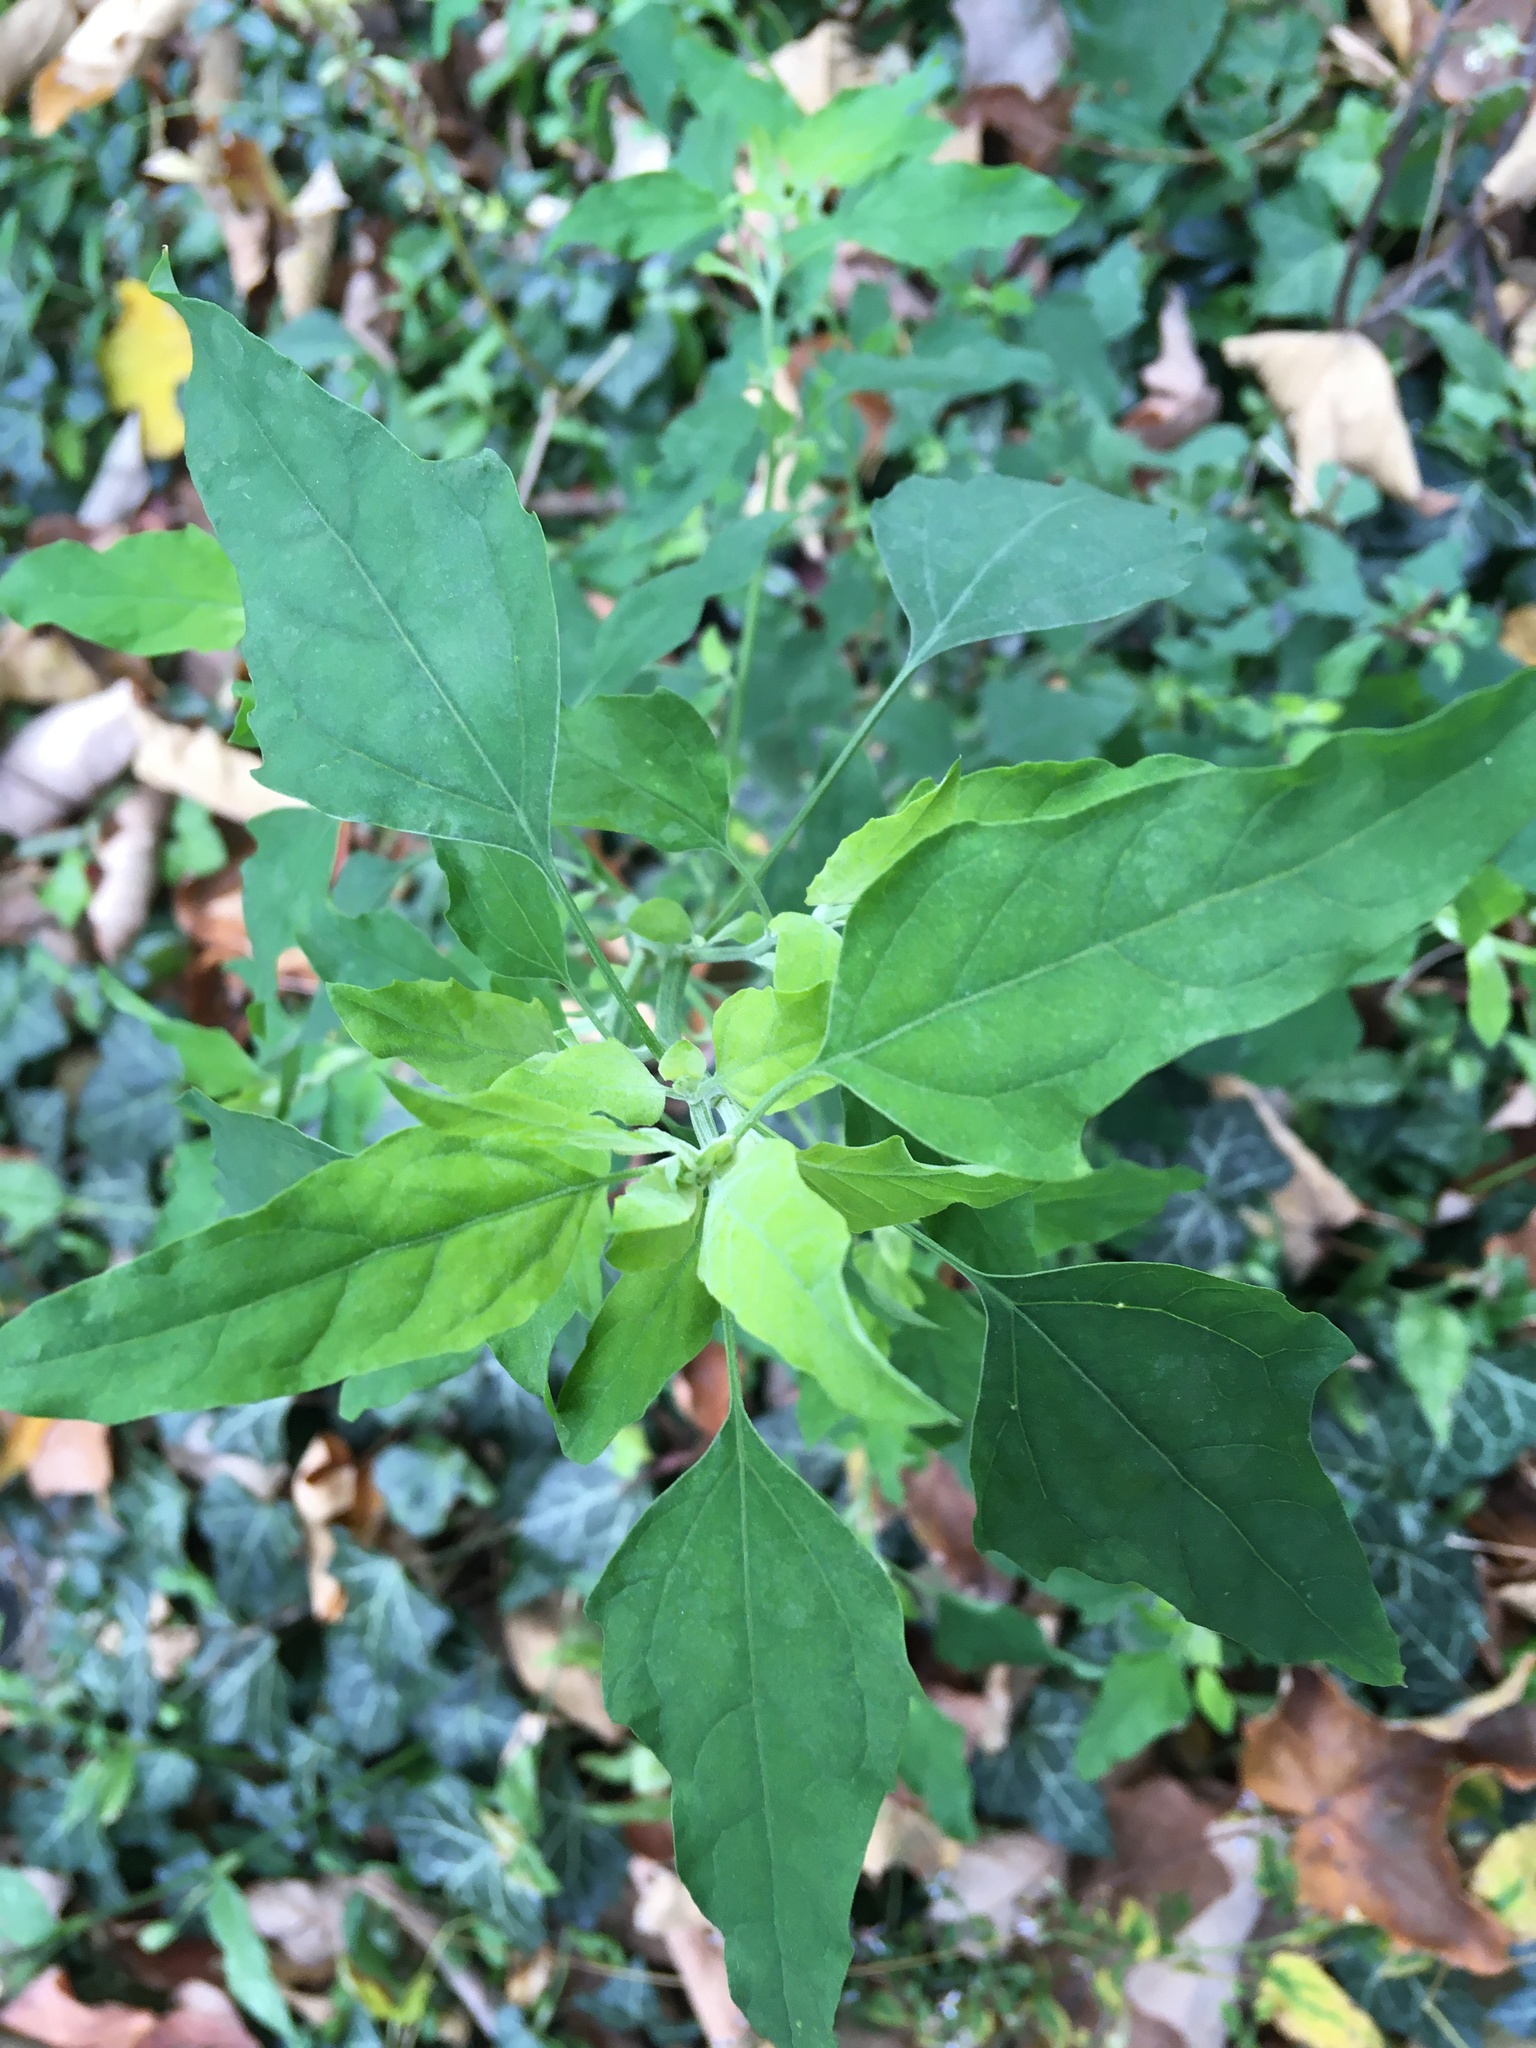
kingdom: Plantae
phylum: Tracheophyta
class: Magnoliopsida
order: Caryophyllales
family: Amaranthaceae
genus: Chenopodium
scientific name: Chenopodium album
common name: Fat-hen
